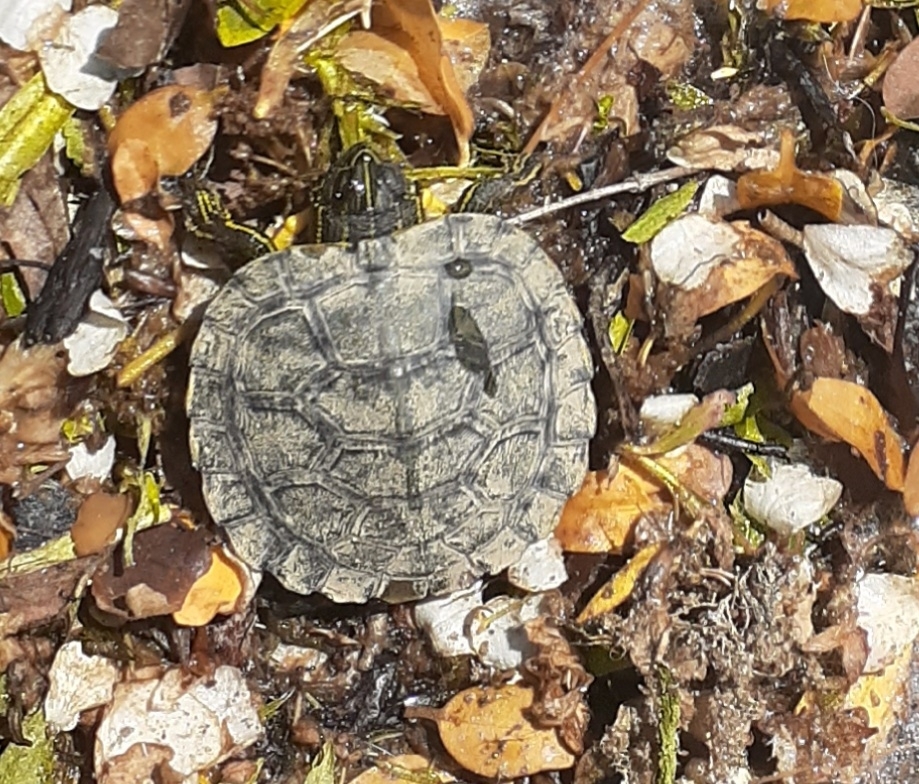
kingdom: Animalia
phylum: Chordata
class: Testudines
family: Emydidae
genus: Trachemys
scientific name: Trachemys scripta
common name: Slider
